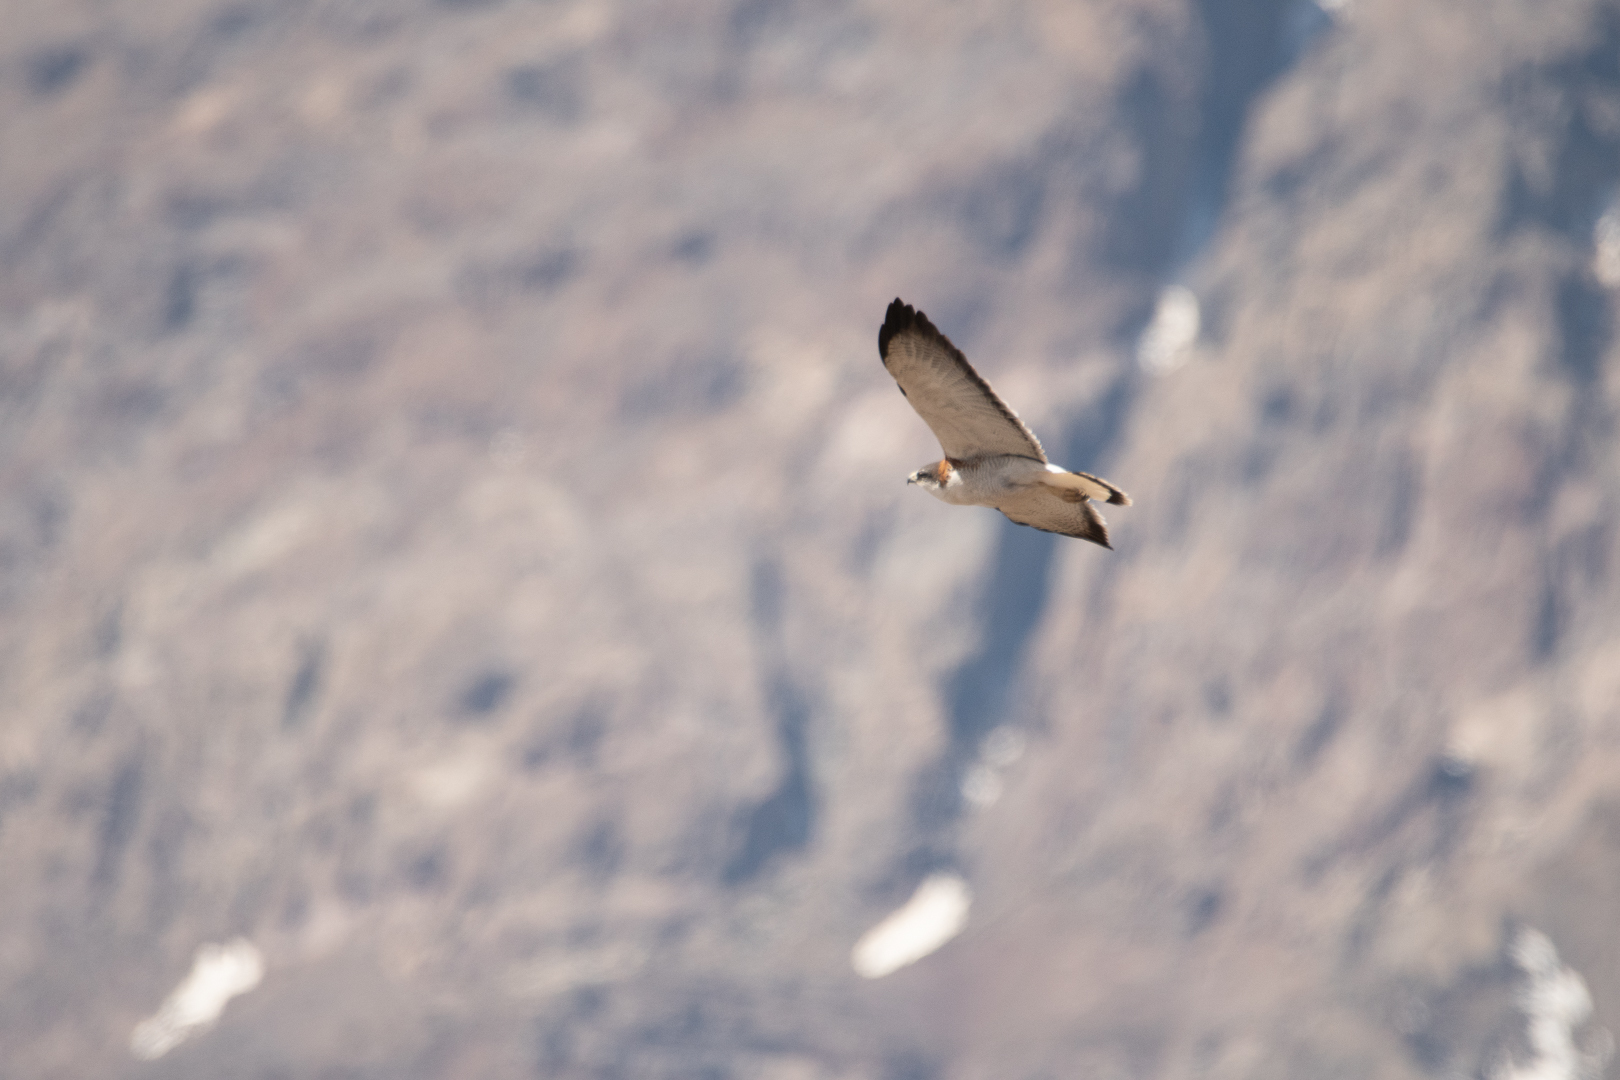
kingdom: Animalia
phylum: Chordata
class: Aves
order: Accipitriformes
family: Accipitridae
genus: Buteo
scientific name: Buteo polyosoma
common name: Variable hawk
